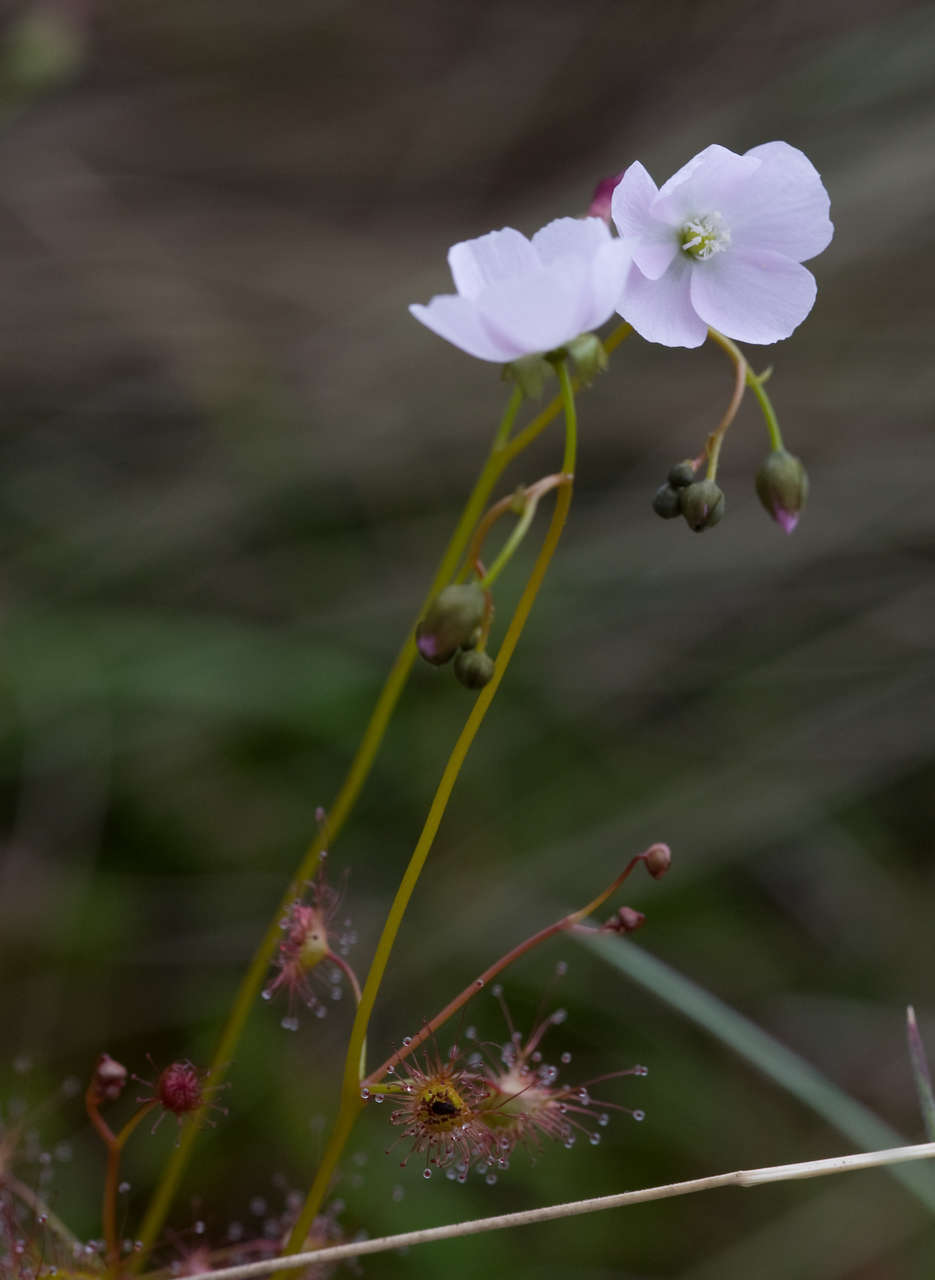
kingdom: Plantae
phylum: Tracheophyta
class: Magnoliopsida
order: Caryophyllales
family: Droseraceae
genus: Drosera
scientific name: Drosera peltata
